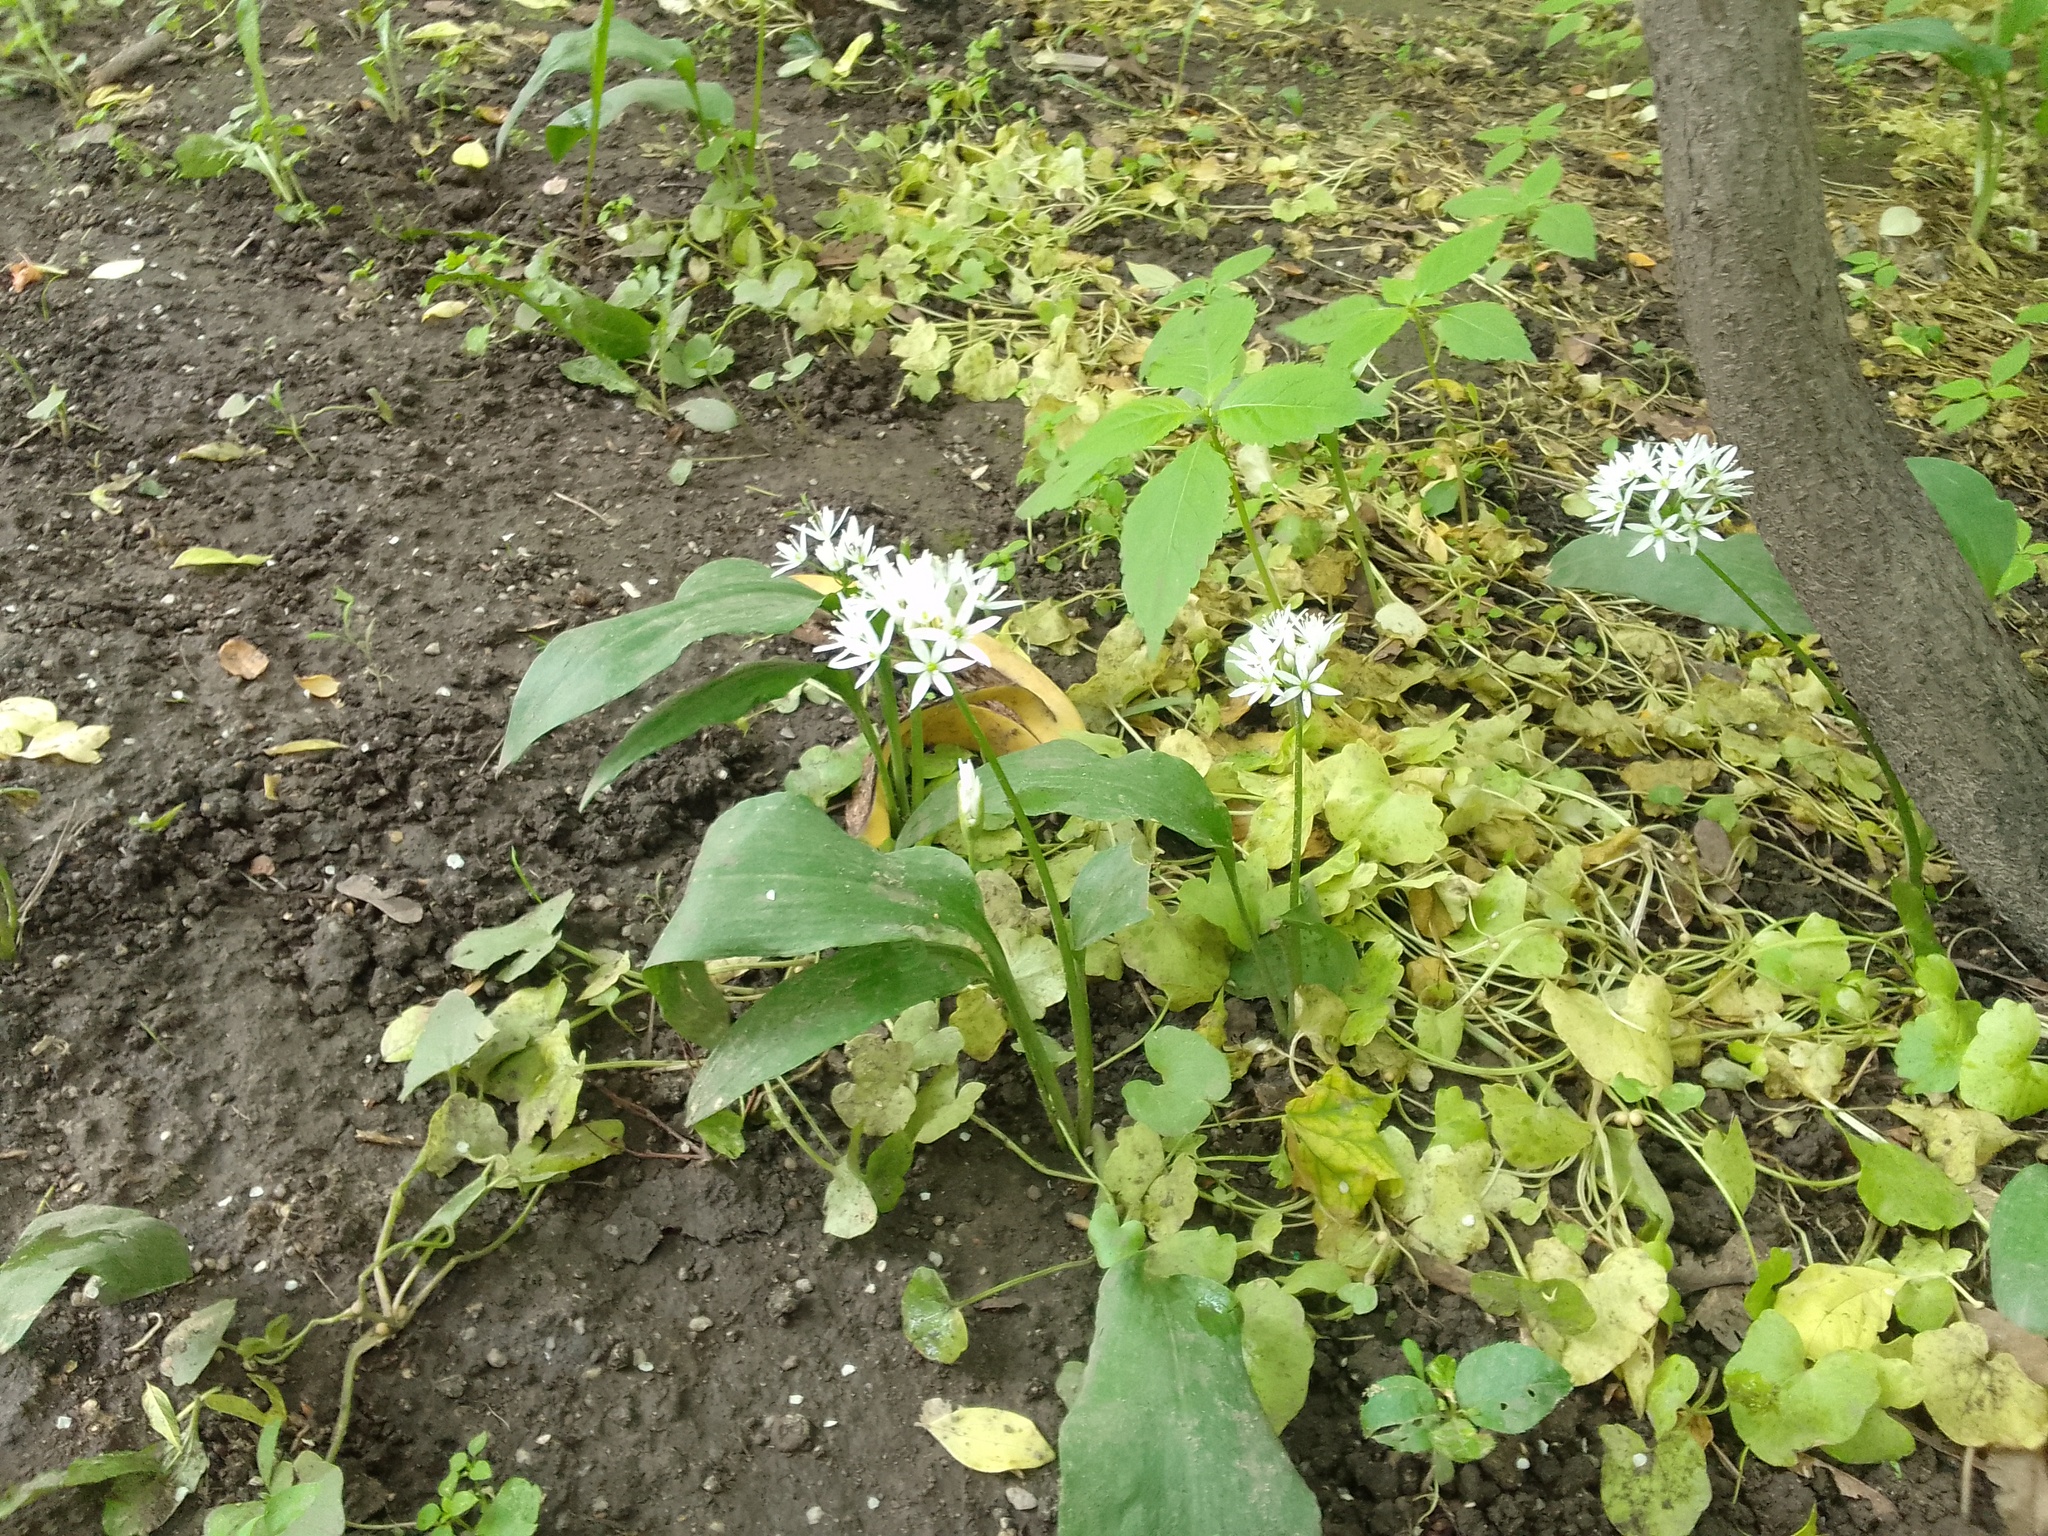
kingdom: Plantae
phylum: Tracheophyta
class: Liliopsida
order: Asparagales
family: Amaryllidaceae
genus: Allium
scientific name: Allium ursinum
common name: Ramsons
